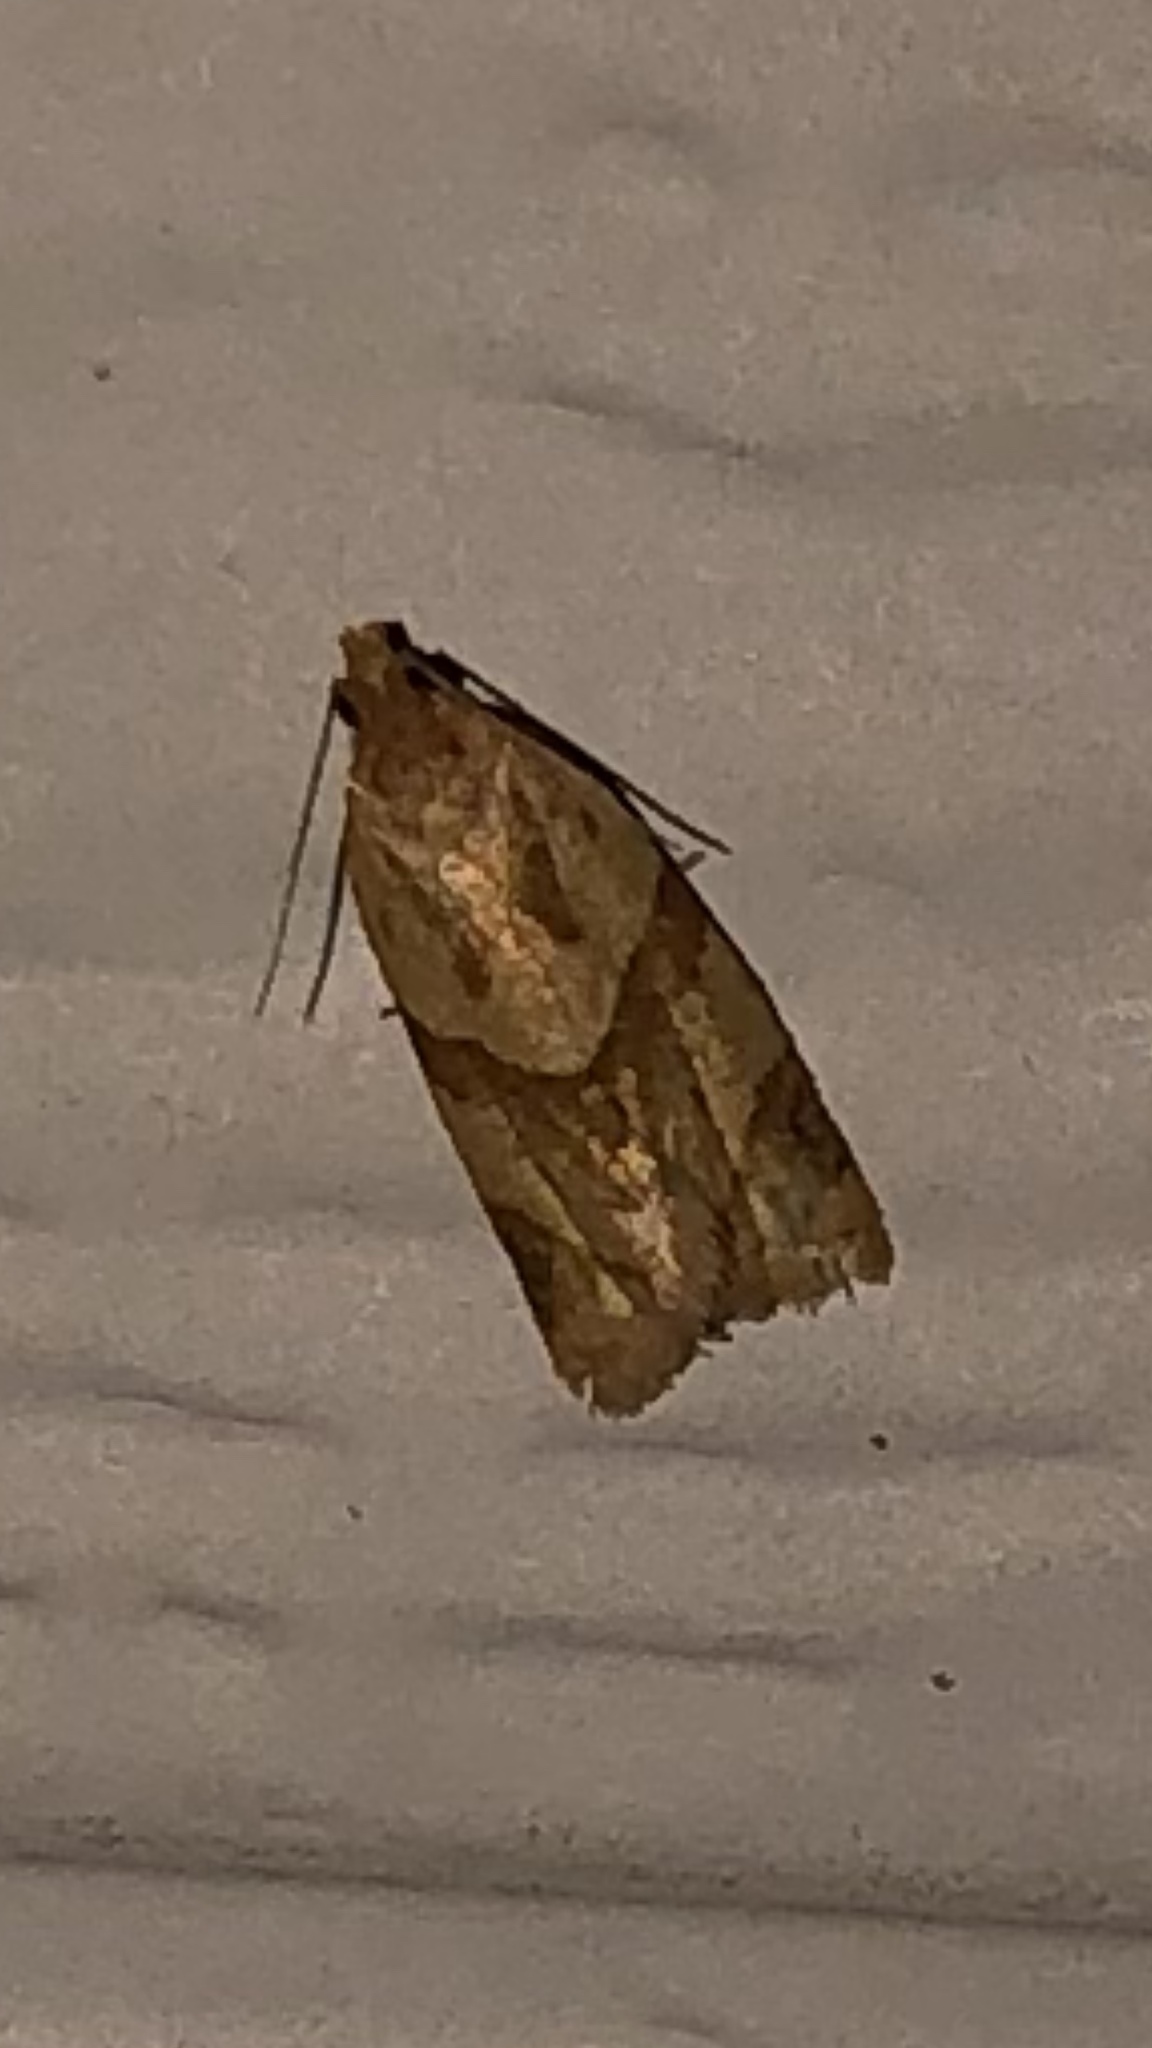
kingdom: Animalia
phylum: Arthropoda
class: Insecta
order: Lepidoptera
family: Tortricidae
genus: Clepsis
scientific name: Clepsis peritana
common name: Garden tortrix
